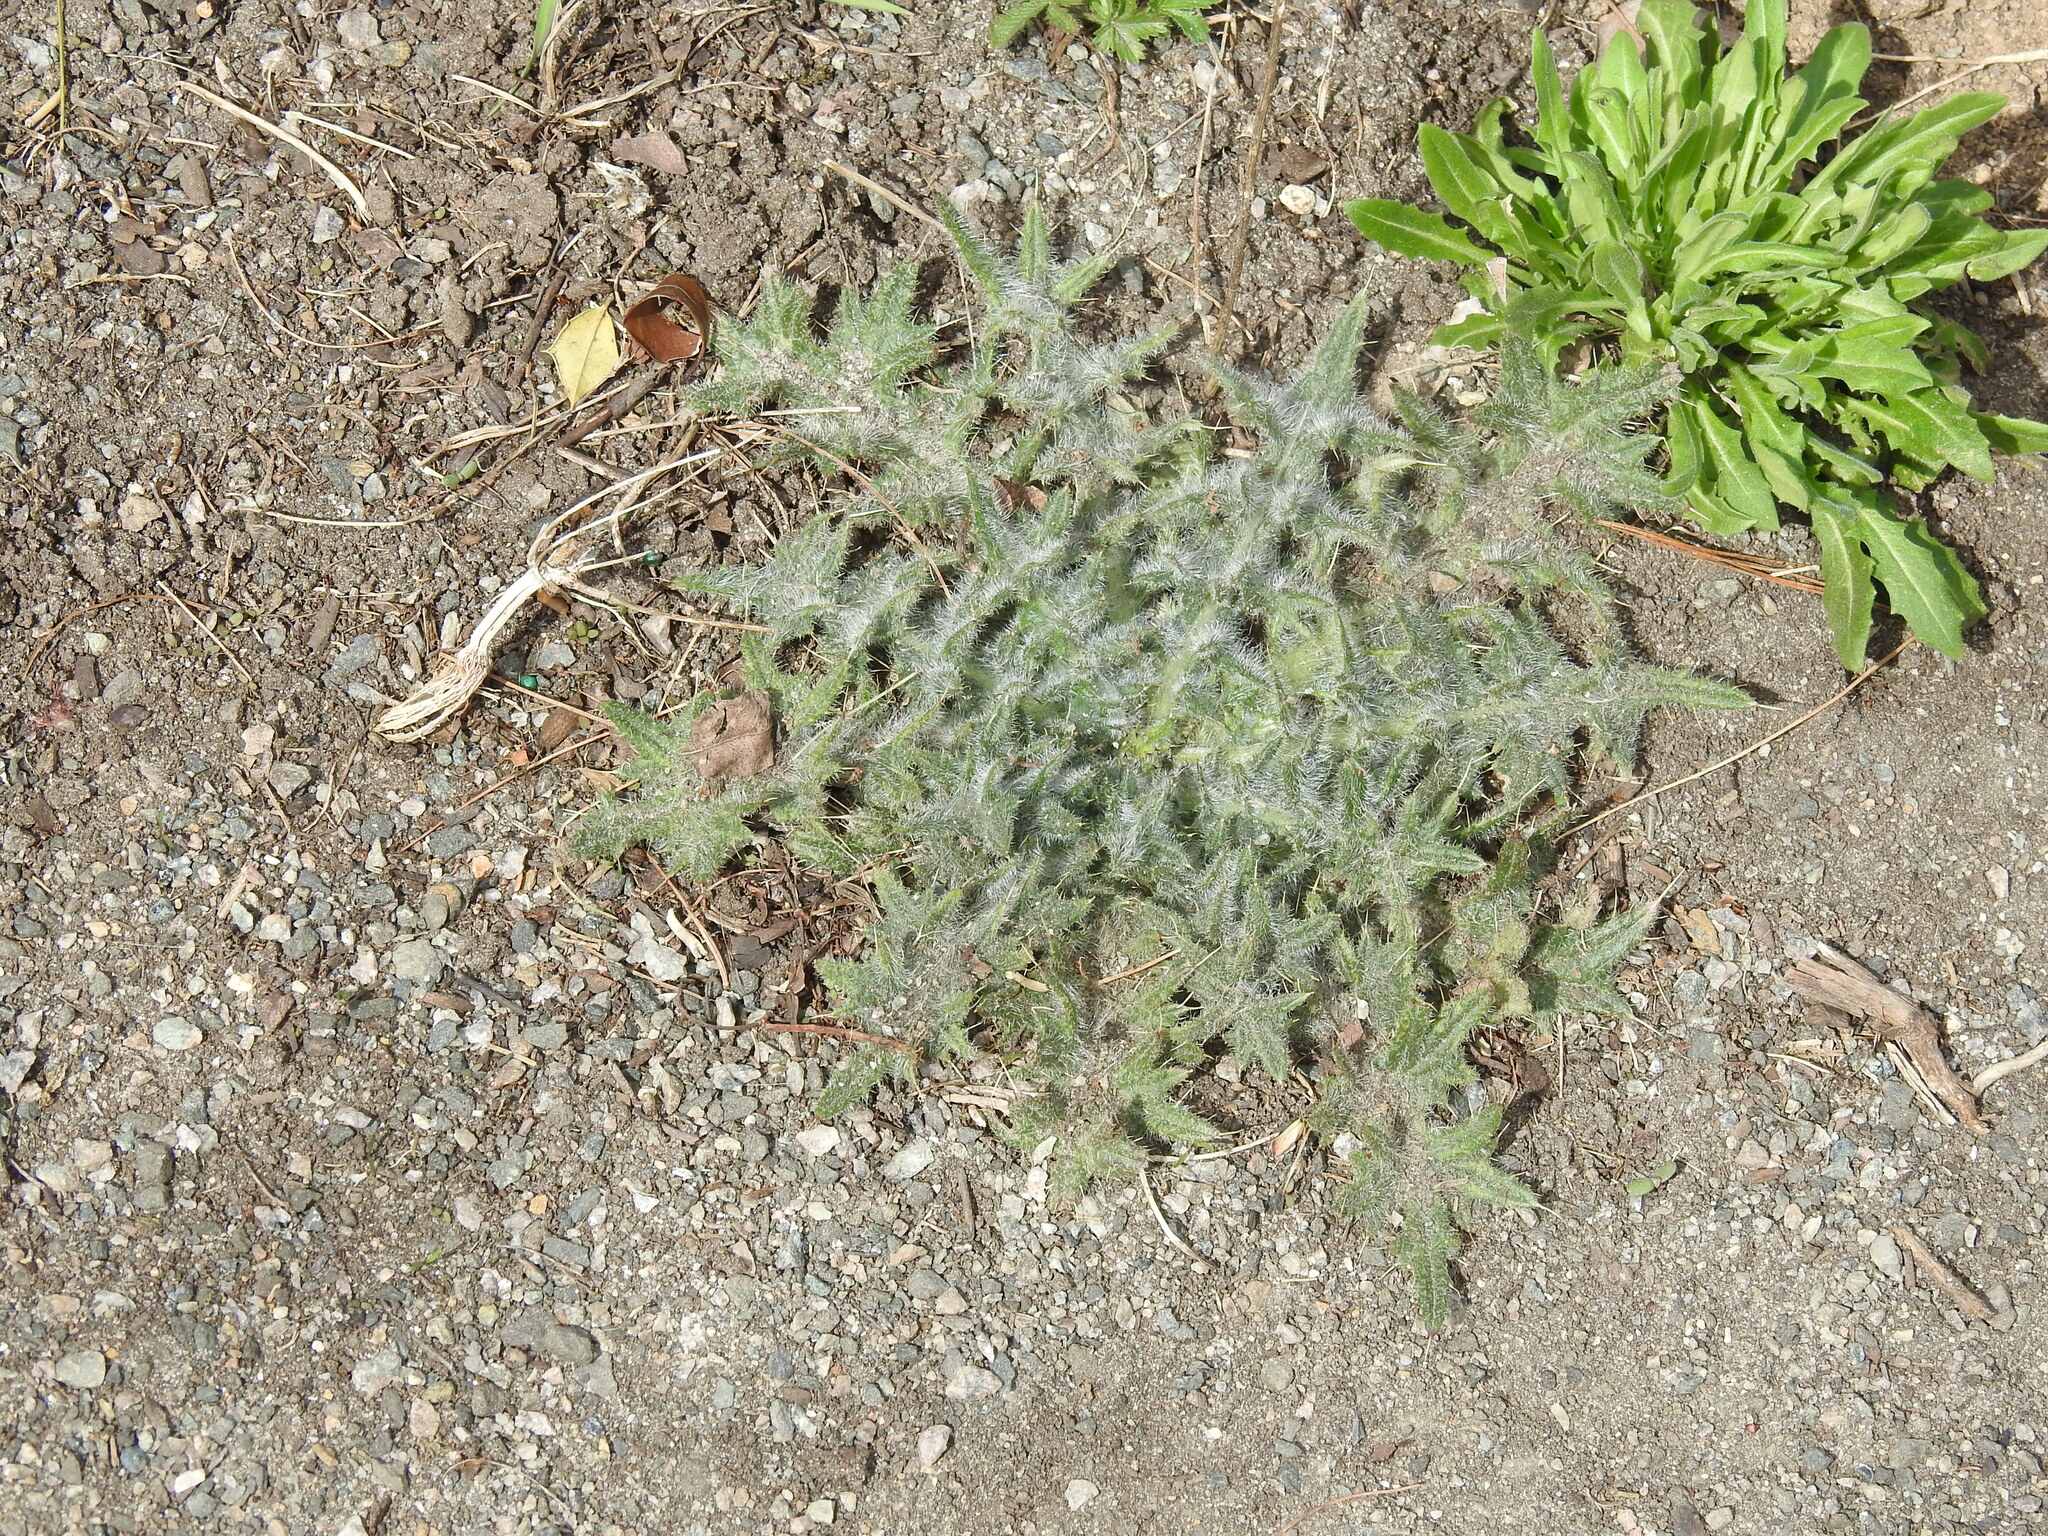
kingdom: Plantae
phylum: Tracheophyta
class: Magnoliopsida
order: Asterales
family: Asteraceae
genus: Cirsium
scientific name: Cirsium vulgare
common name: Bull thistle
